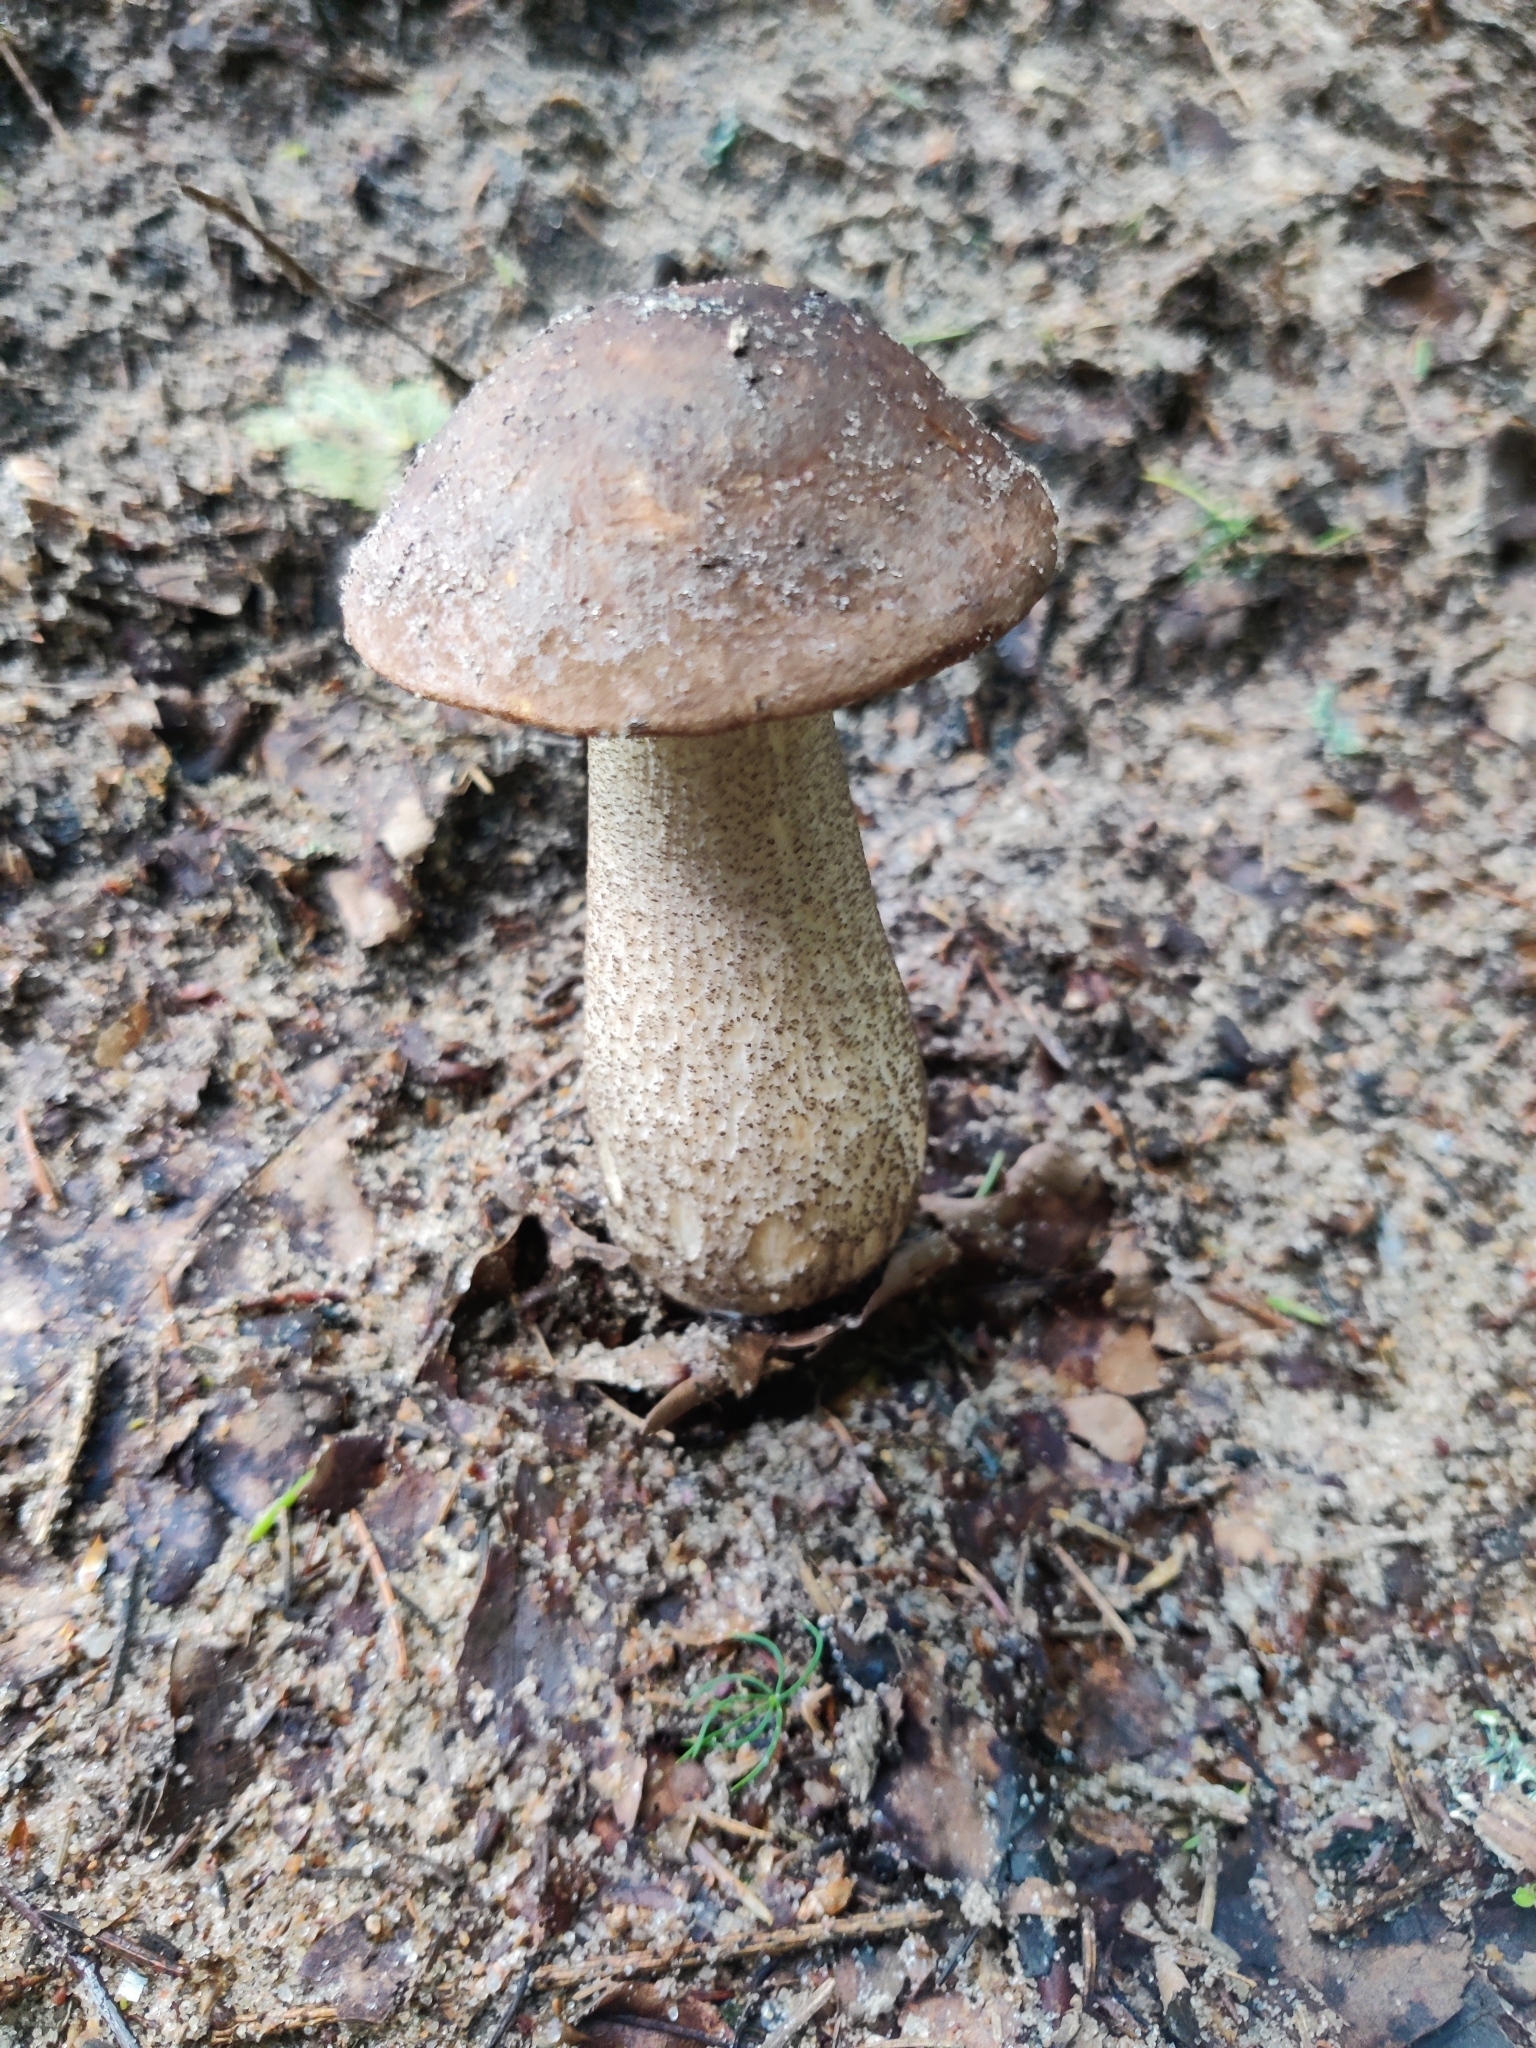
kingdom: Fungi
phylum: Basidiomycota
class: Agaricomycetes
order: Boletales
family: Boletaceae
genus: Leccinum
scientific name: Leccinum scabrum
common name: Blushing bolete
